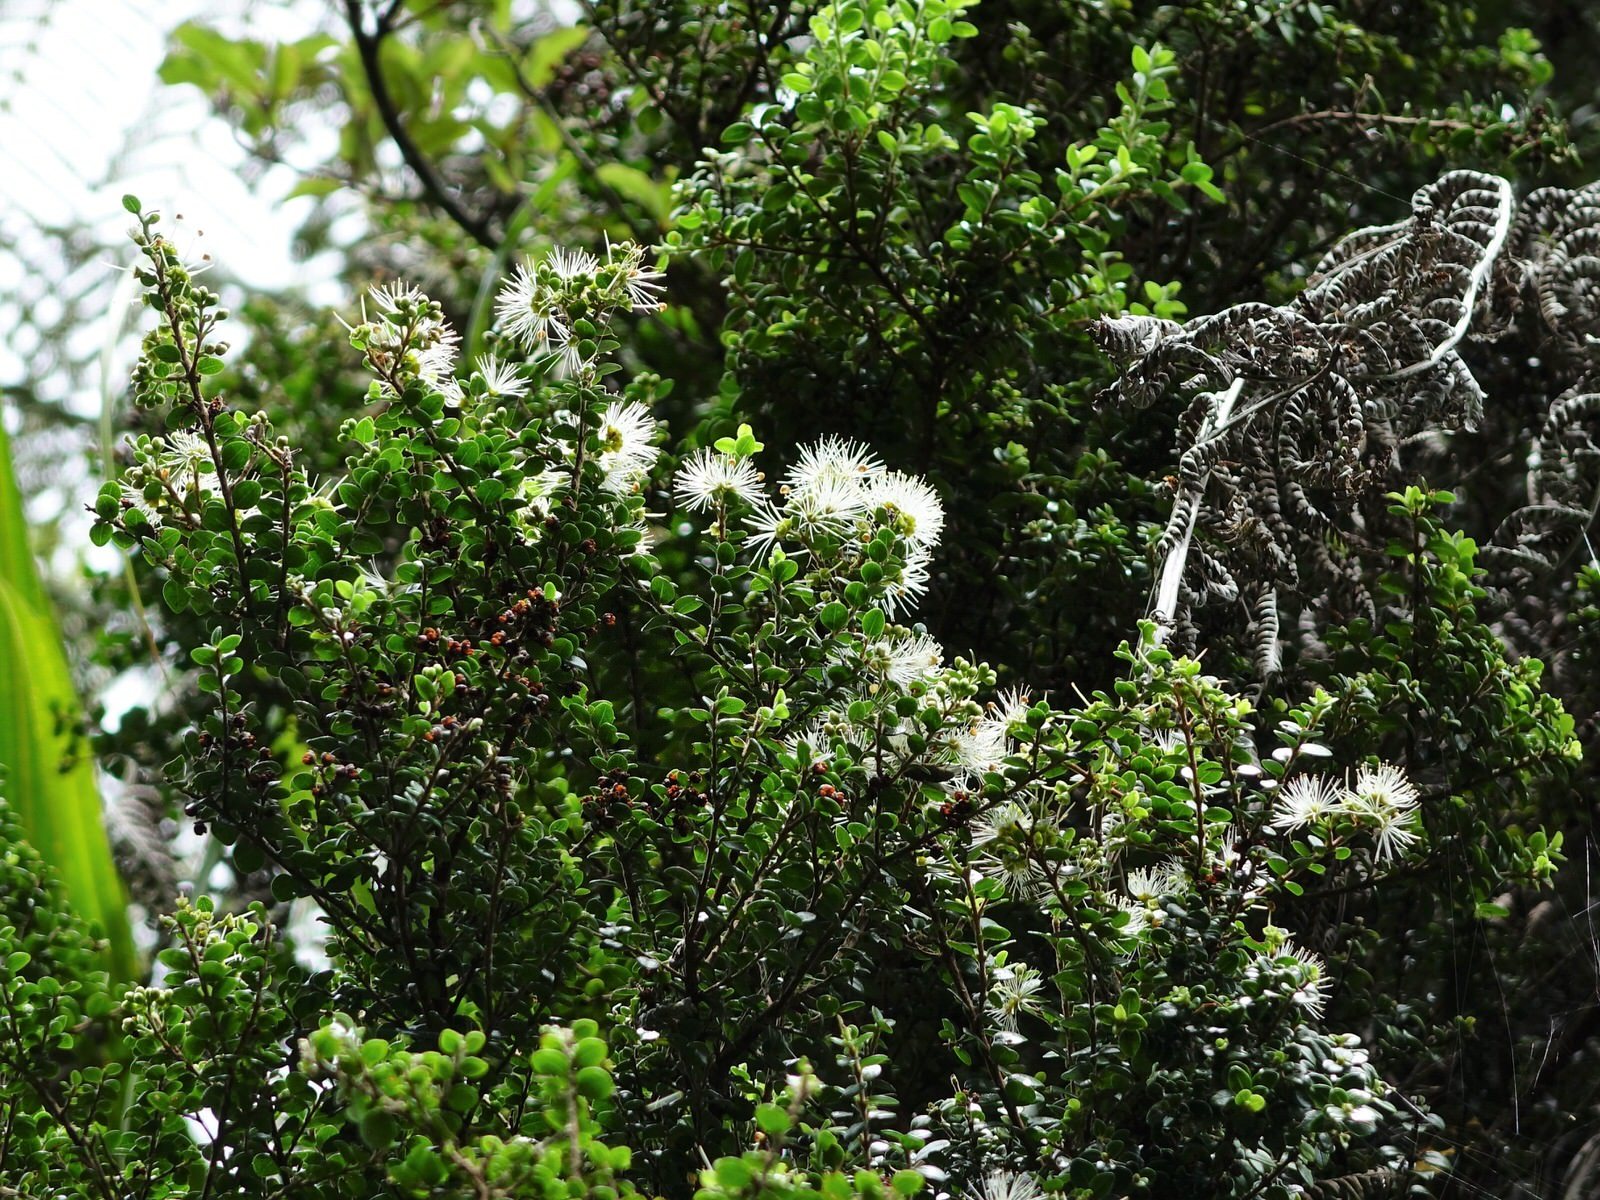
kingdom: Plantae
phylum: Tracheophyta
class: Magnoliopsida
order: Myrtales
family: Myrtaceae
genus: Metrosideros
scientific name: Metrosideros perforata
